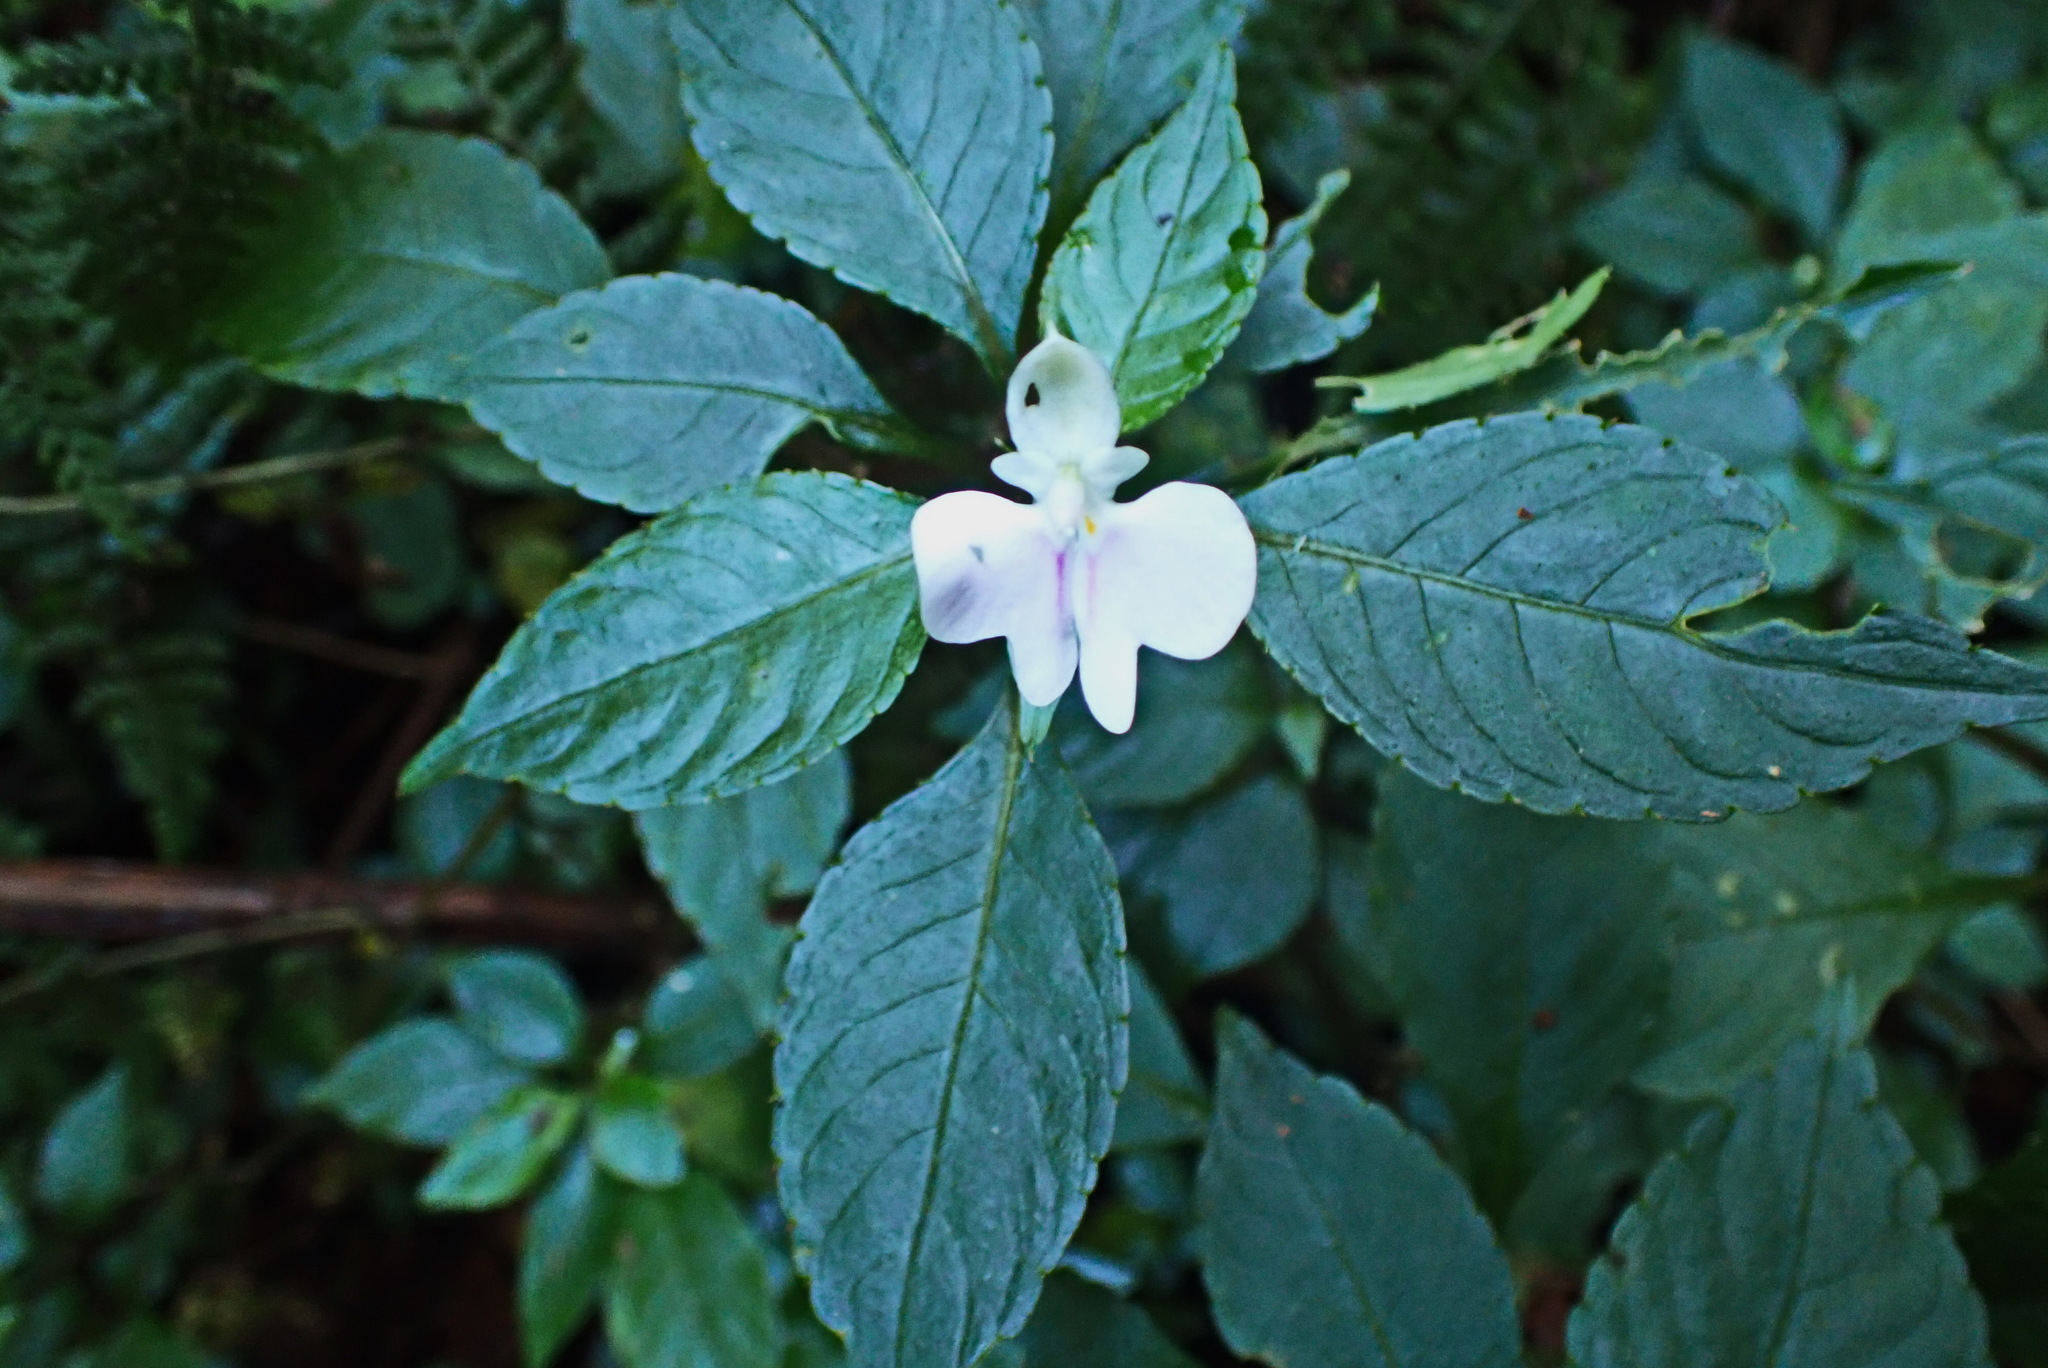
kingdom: Plantae
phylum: Tracheophyta
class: Magnoliopsida
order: Ericales
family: Balsaminaceae
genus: Impatiens
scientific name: Impatiens hochstetteri
